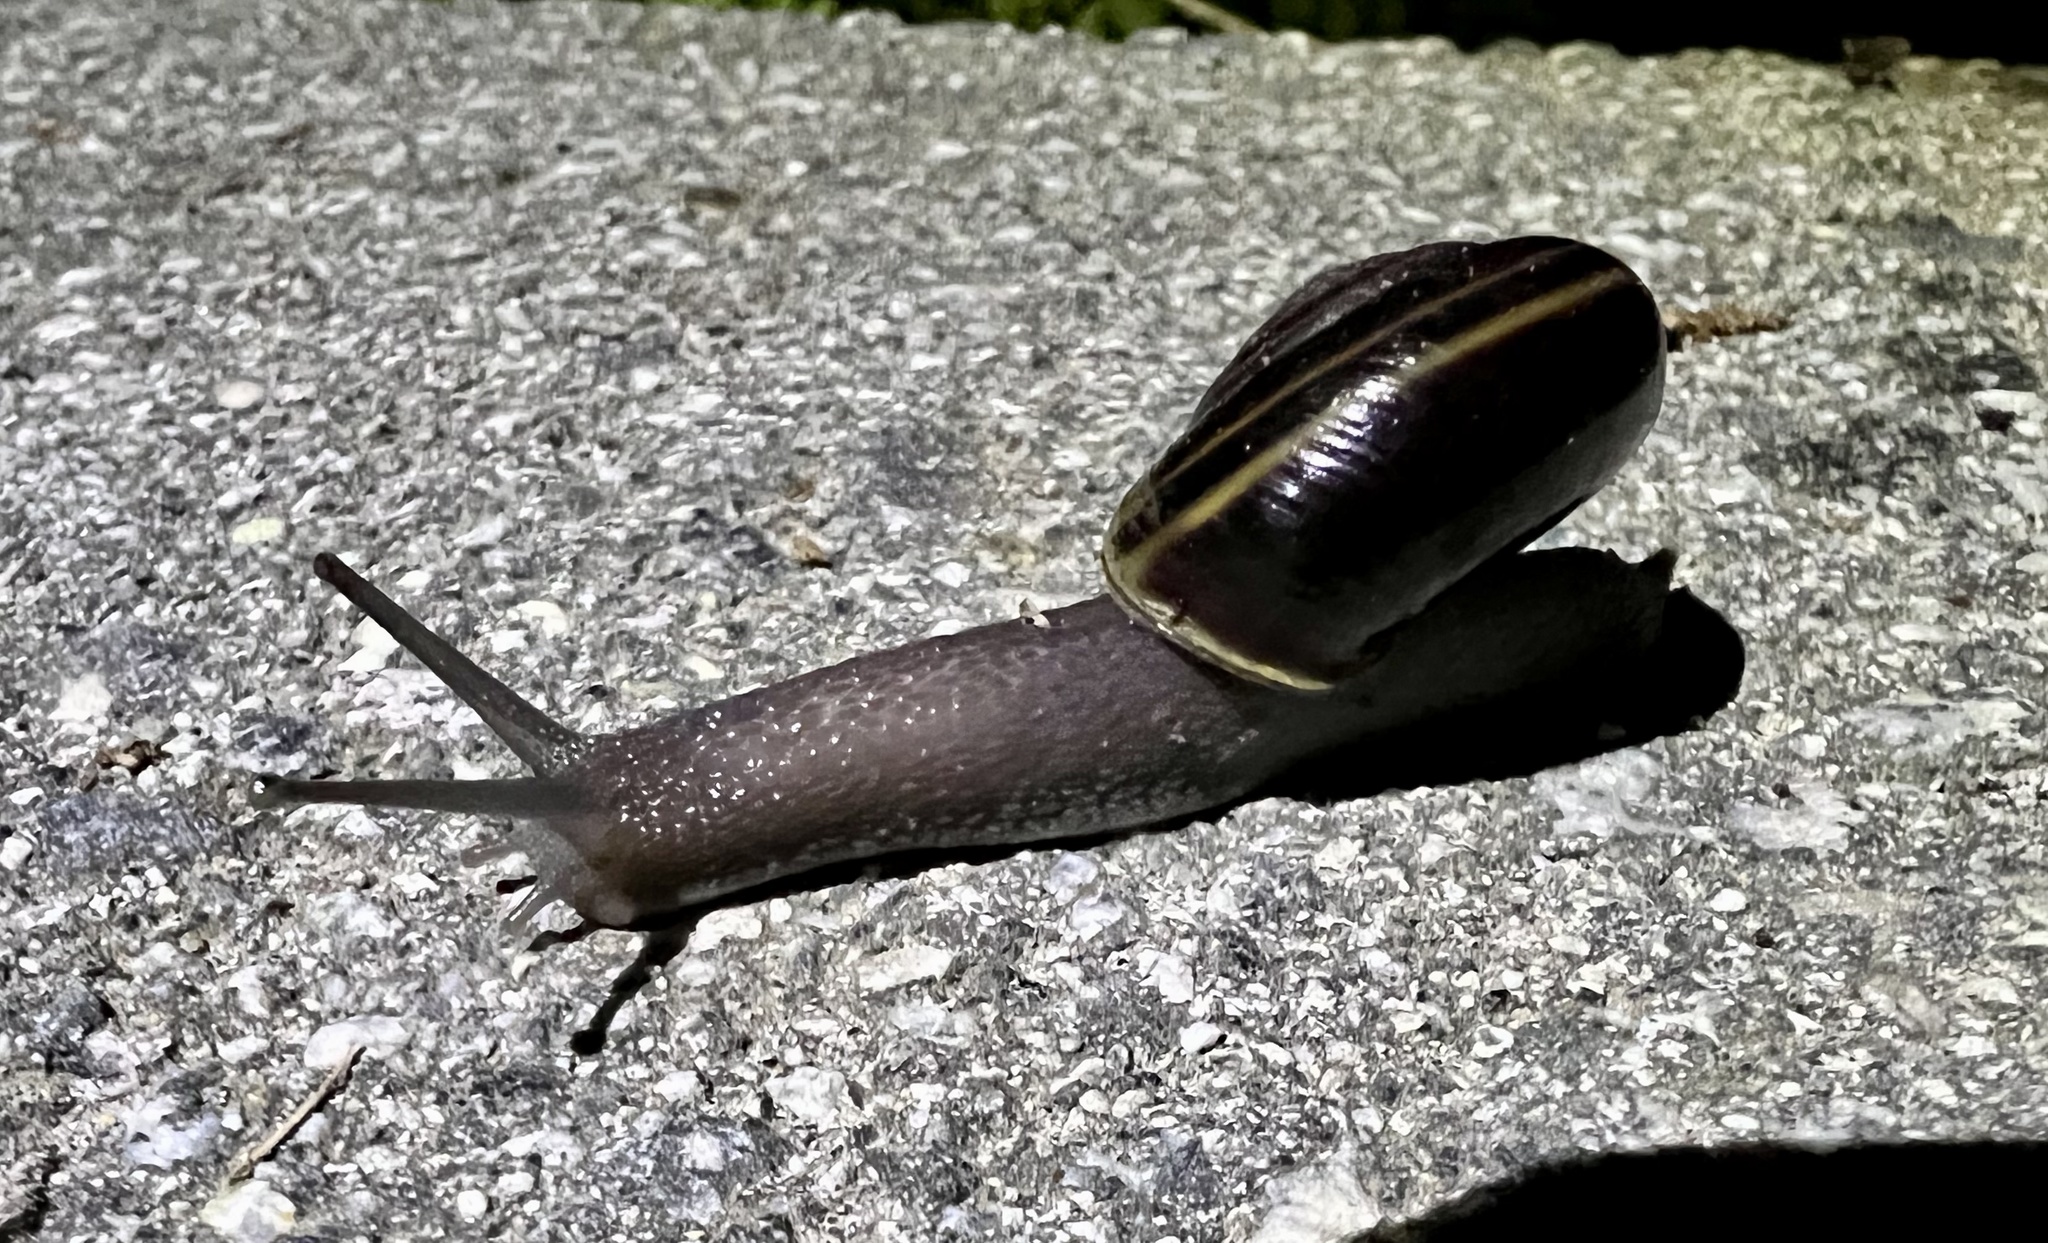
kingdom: Animalia
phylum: Mollusca
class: Gastropoda
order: Stylommatophora
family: Xanthonychidae
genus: Helminthoglypta
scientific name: Helminthoglypta sequoicola
